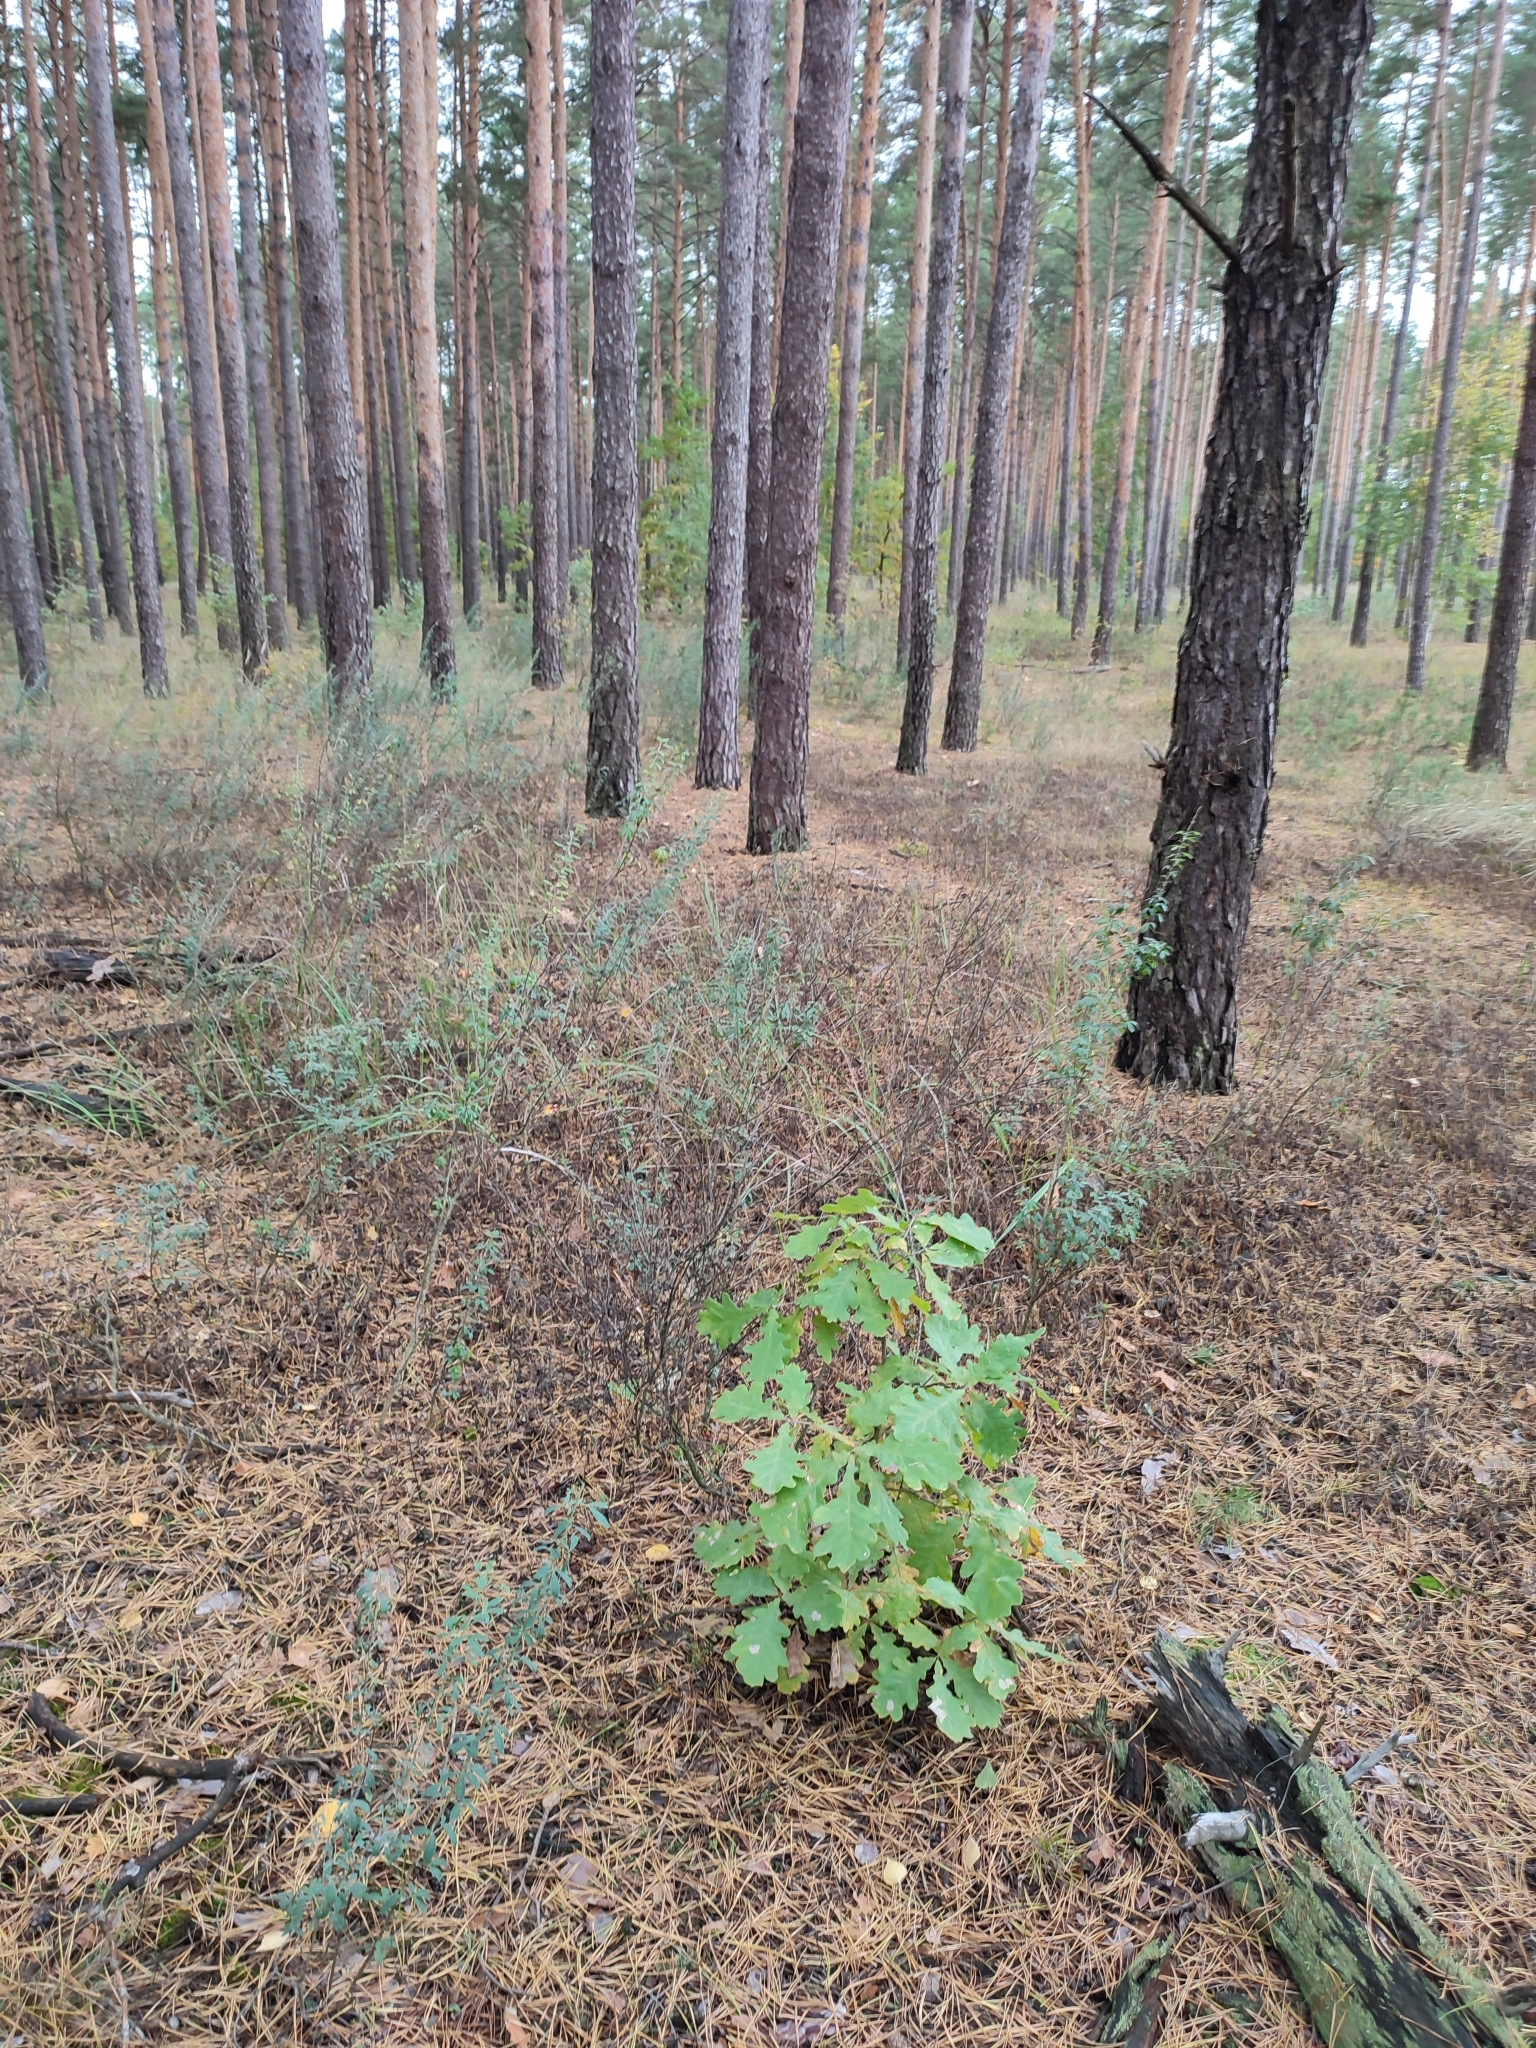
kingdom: Plantae
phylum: Tracheophyta
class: Magnoliopsida
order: Fagales
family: Fagaceae
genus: Quercus
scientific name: Quercus robur
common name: Pedunculate oak
